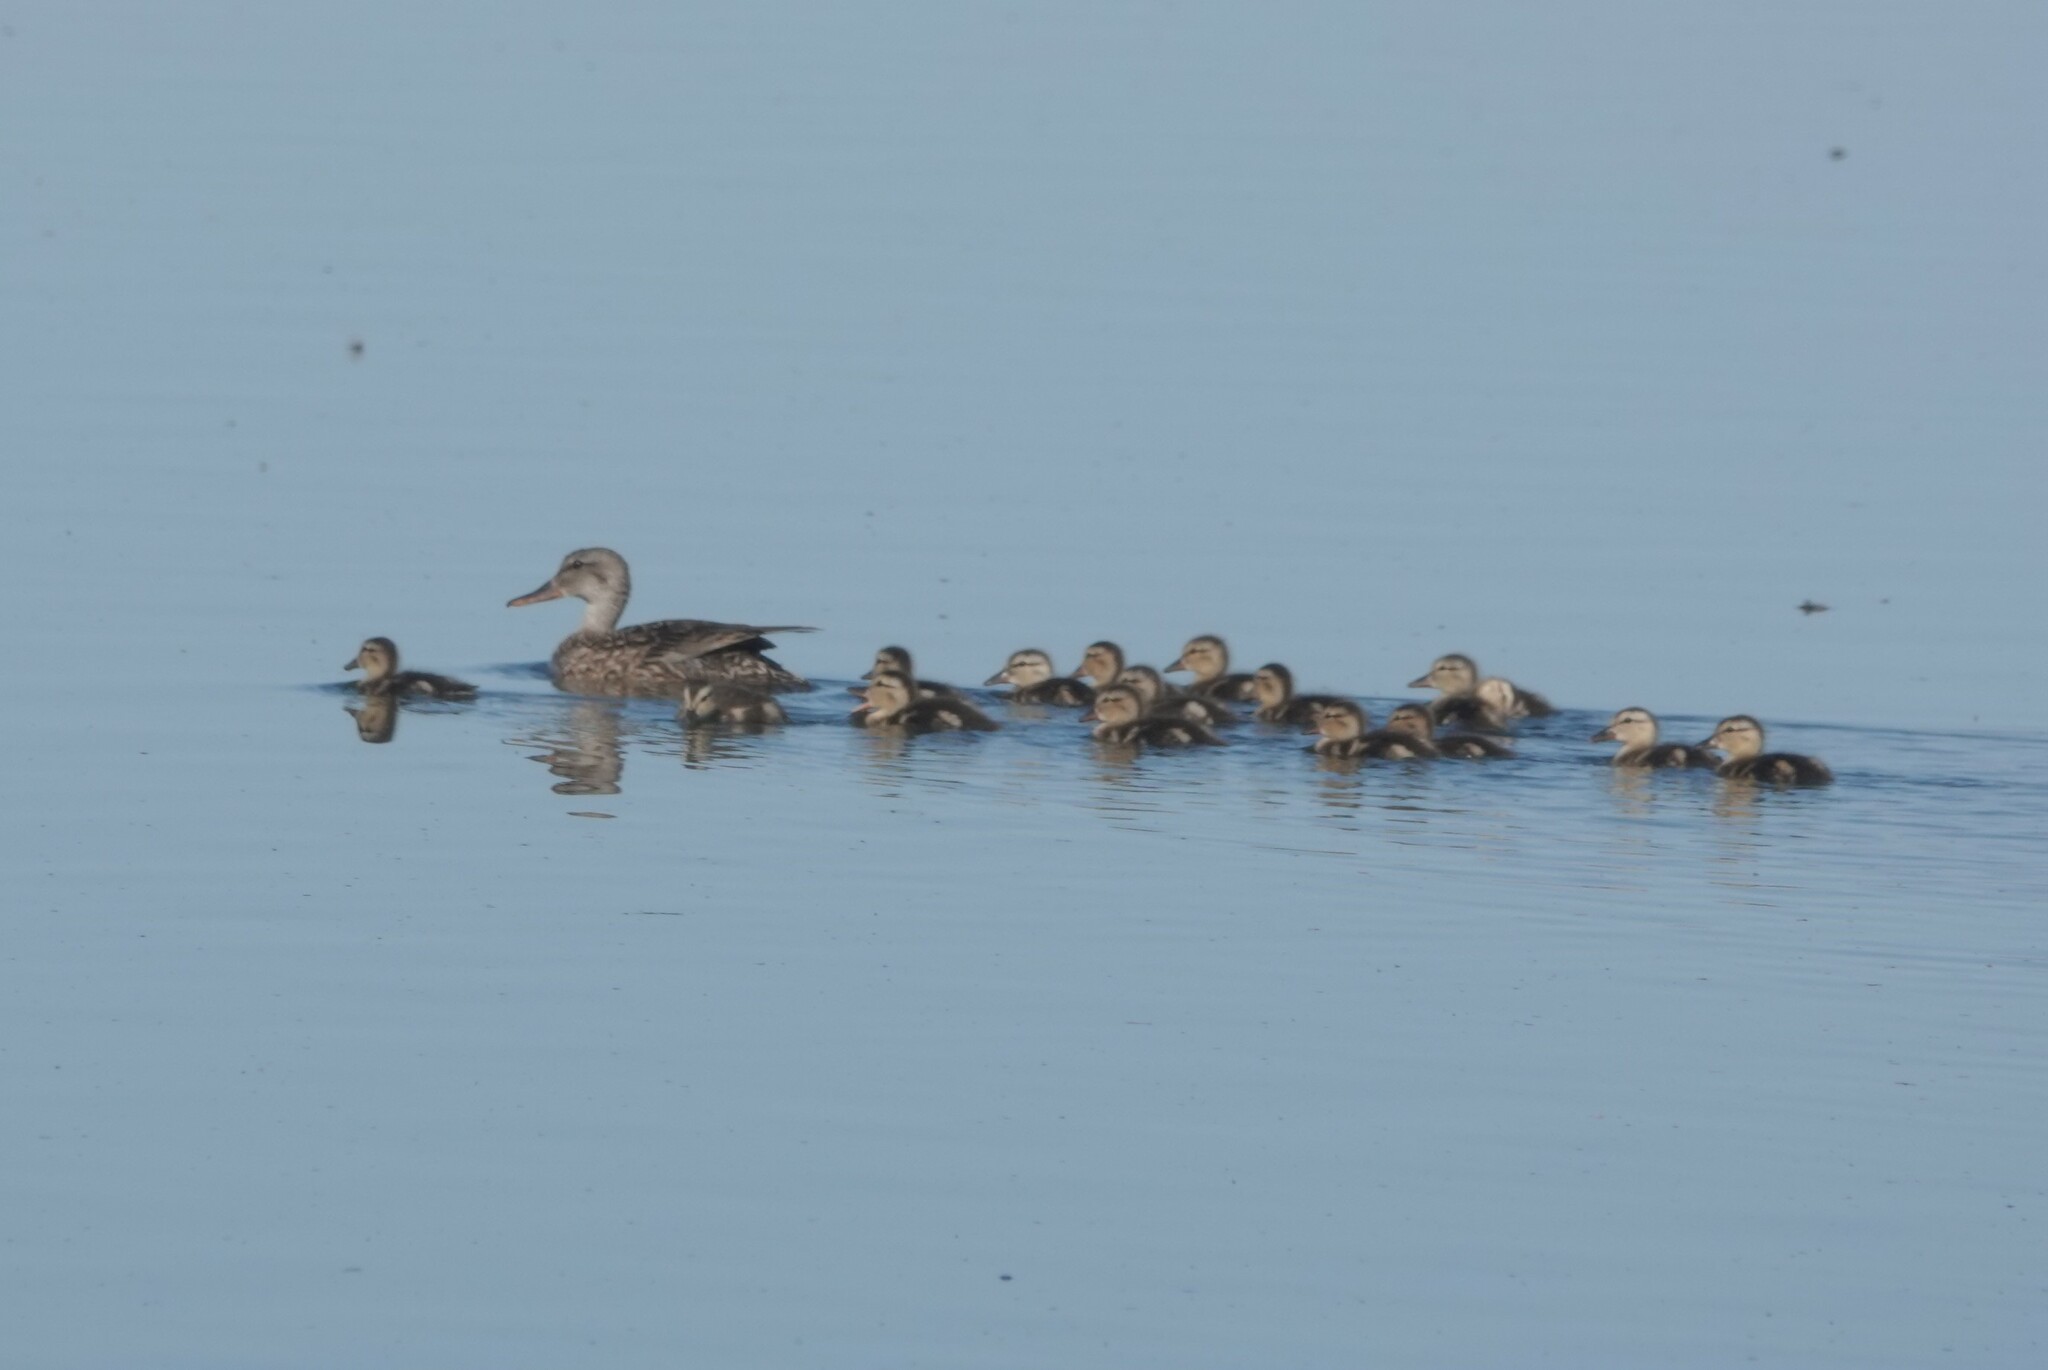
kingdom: Animalia
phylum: Chordata
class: Aves
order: Anseriformes
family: Anatidae
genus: Mareca
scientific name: Mareca strepera
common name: Gadwall
